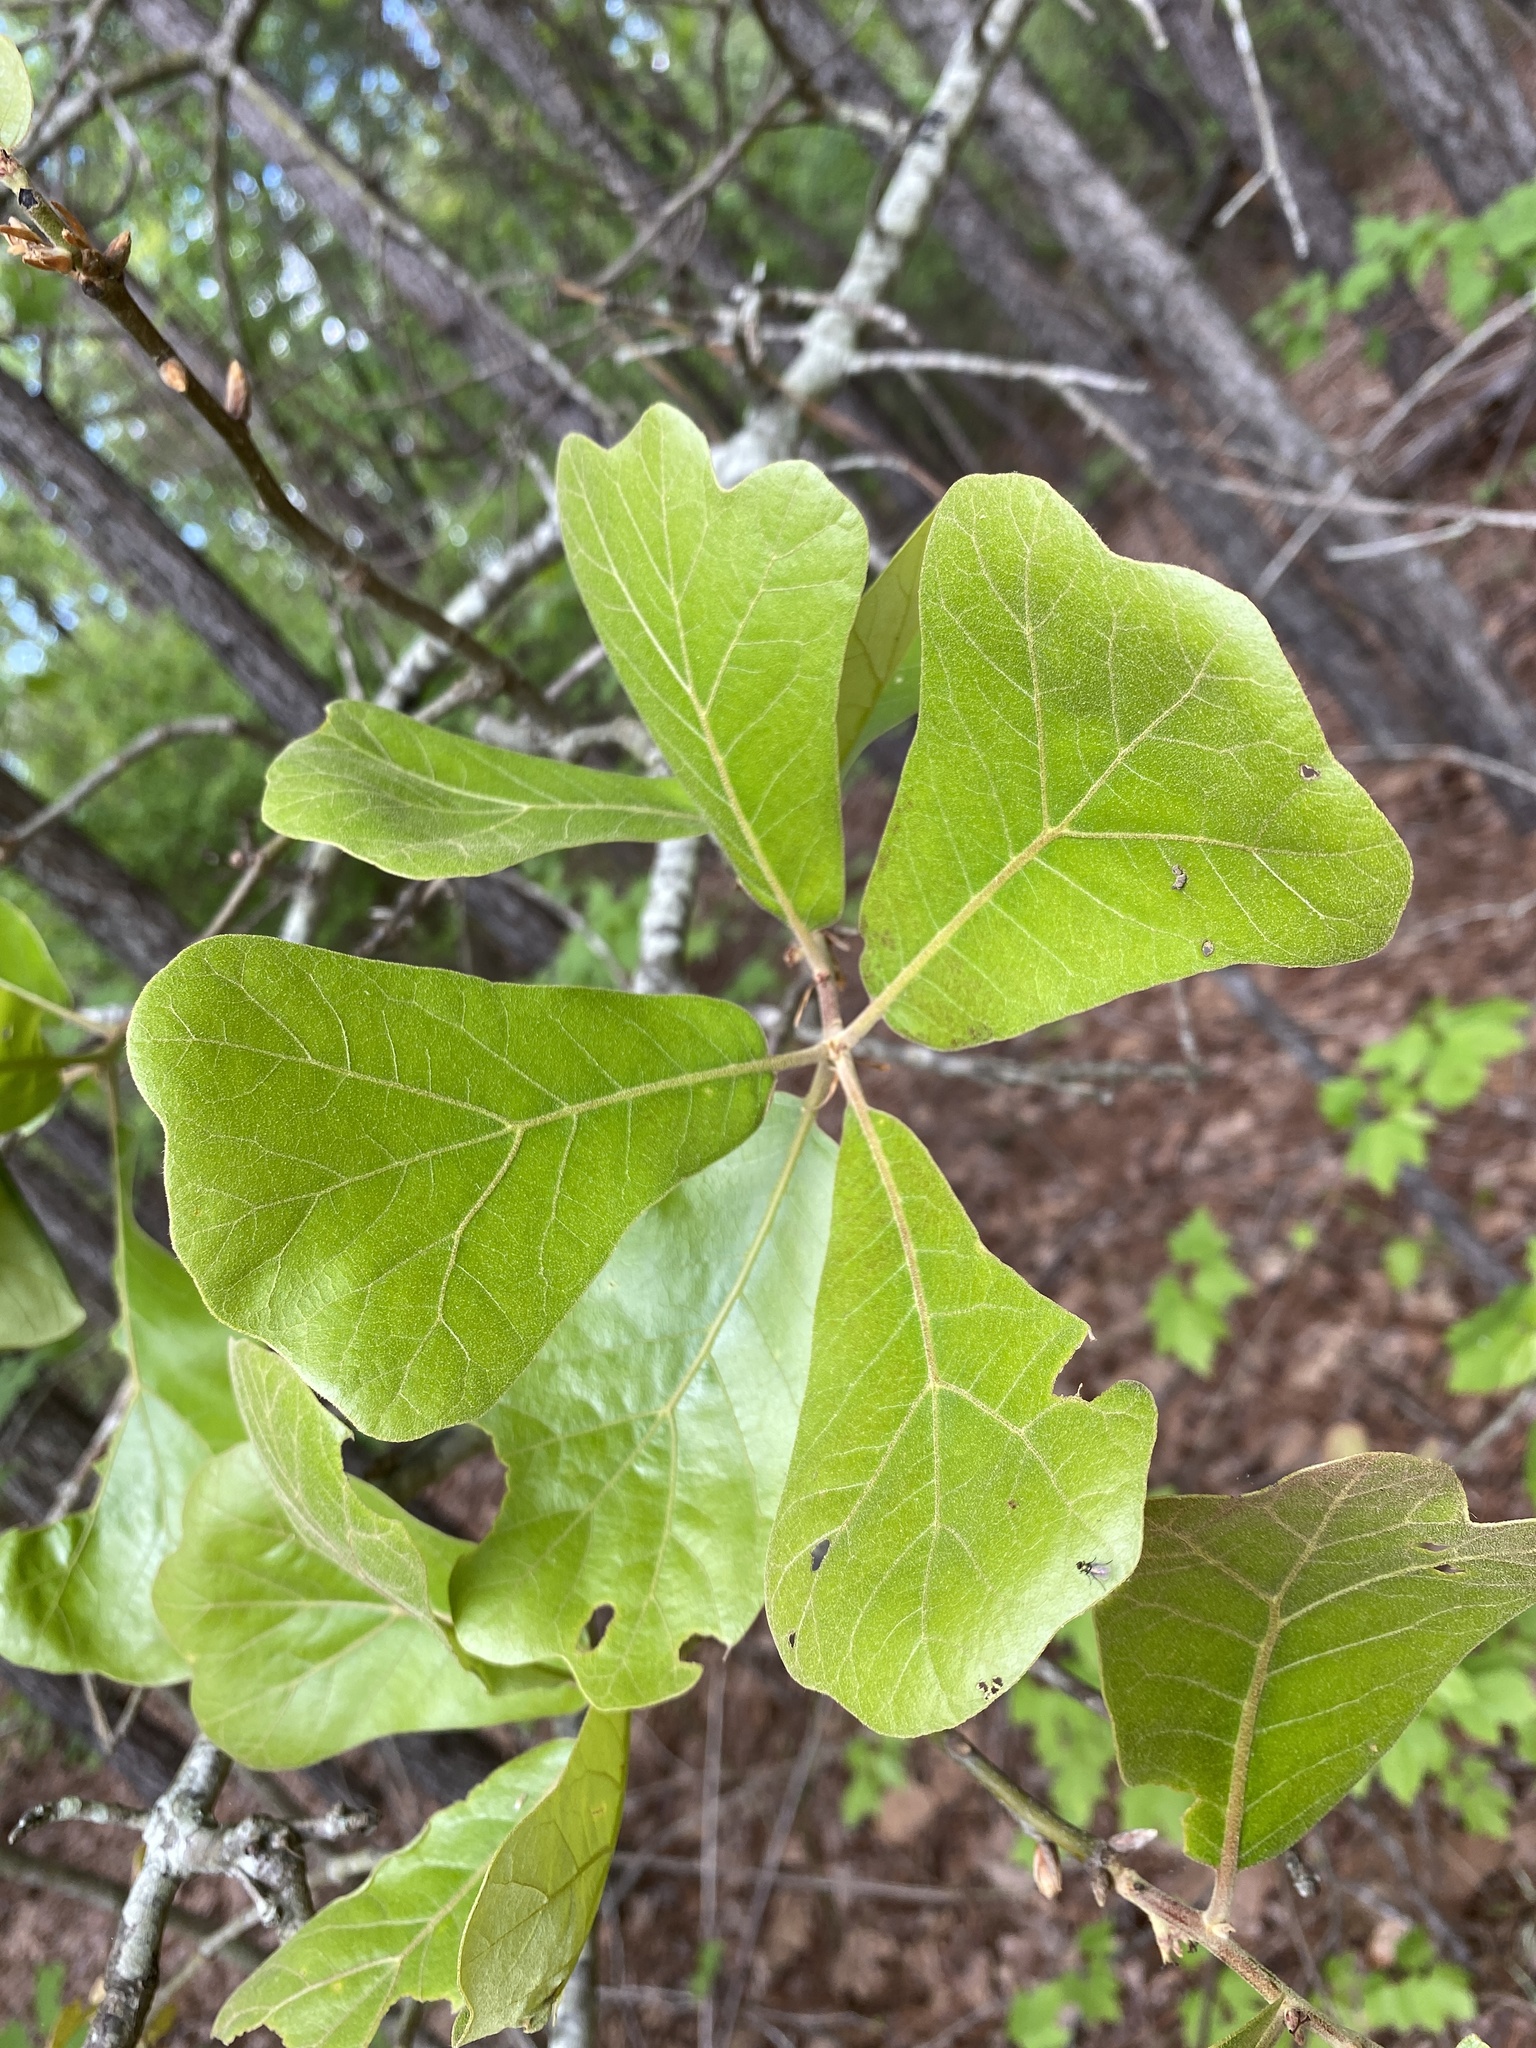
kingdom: Plantae
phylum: Tracheophyta
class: Magnoliopsida
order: Fagales
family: Fagaceae
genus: Quercus
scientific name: Quercus marilandica
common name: Blackjack oak
